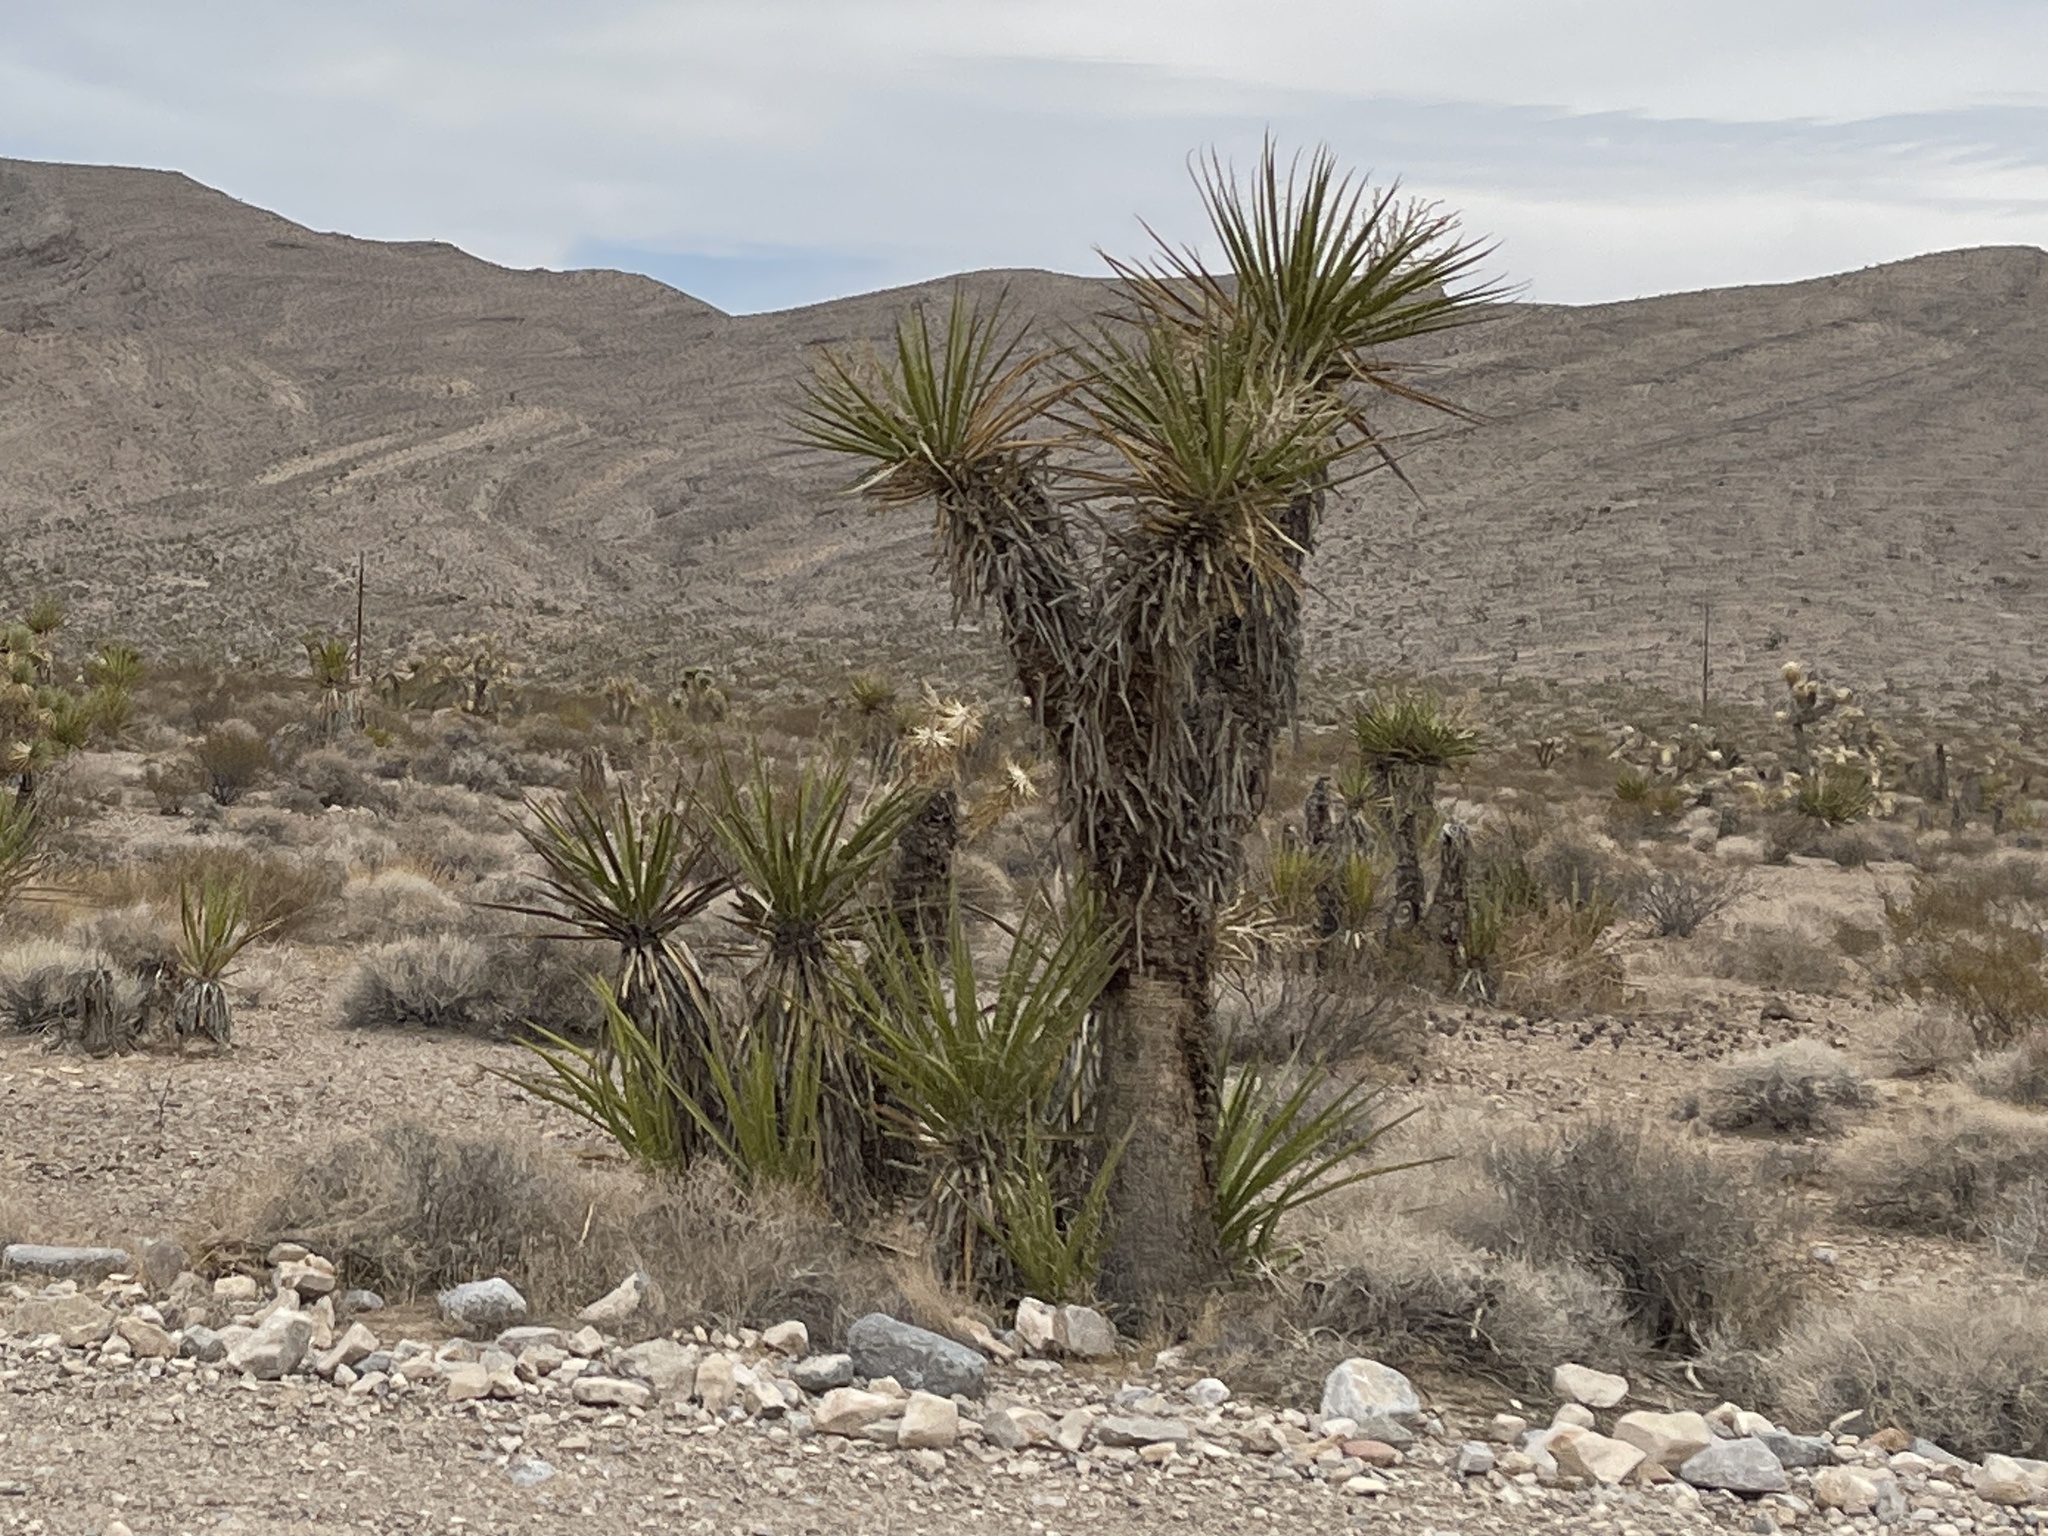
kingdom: Plantae
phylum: Tracheophyta
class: Liliopsida
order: Asparagales
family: Asparagaceae
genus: Yucca
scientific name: Yucca schidigera
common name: Mojave yucca
